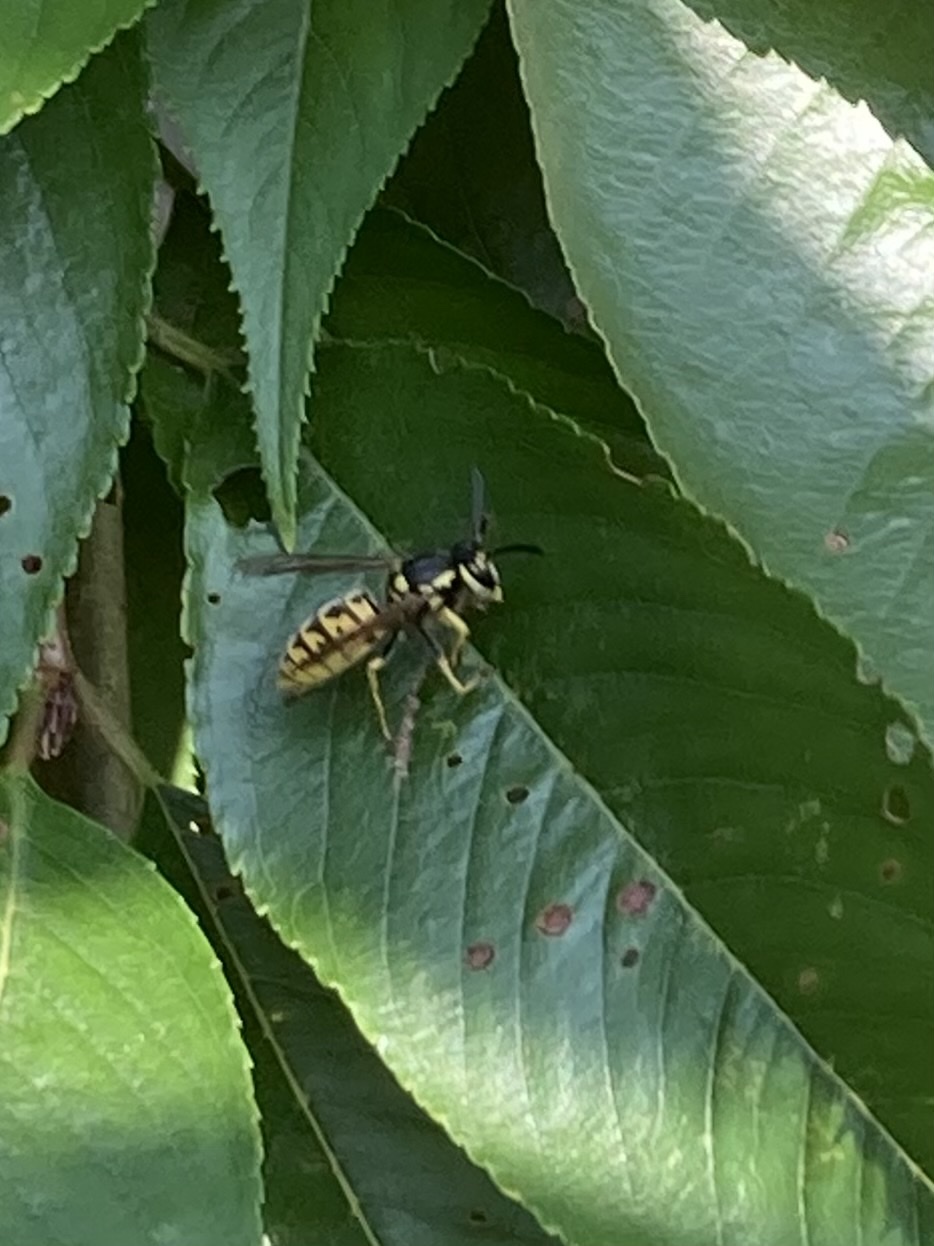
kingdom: Animalia
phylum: Arthropoda
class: Insecta
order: Hymenoptera
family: Vespidae
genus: Vespula
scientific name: Vespula germanica
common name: German wasp
